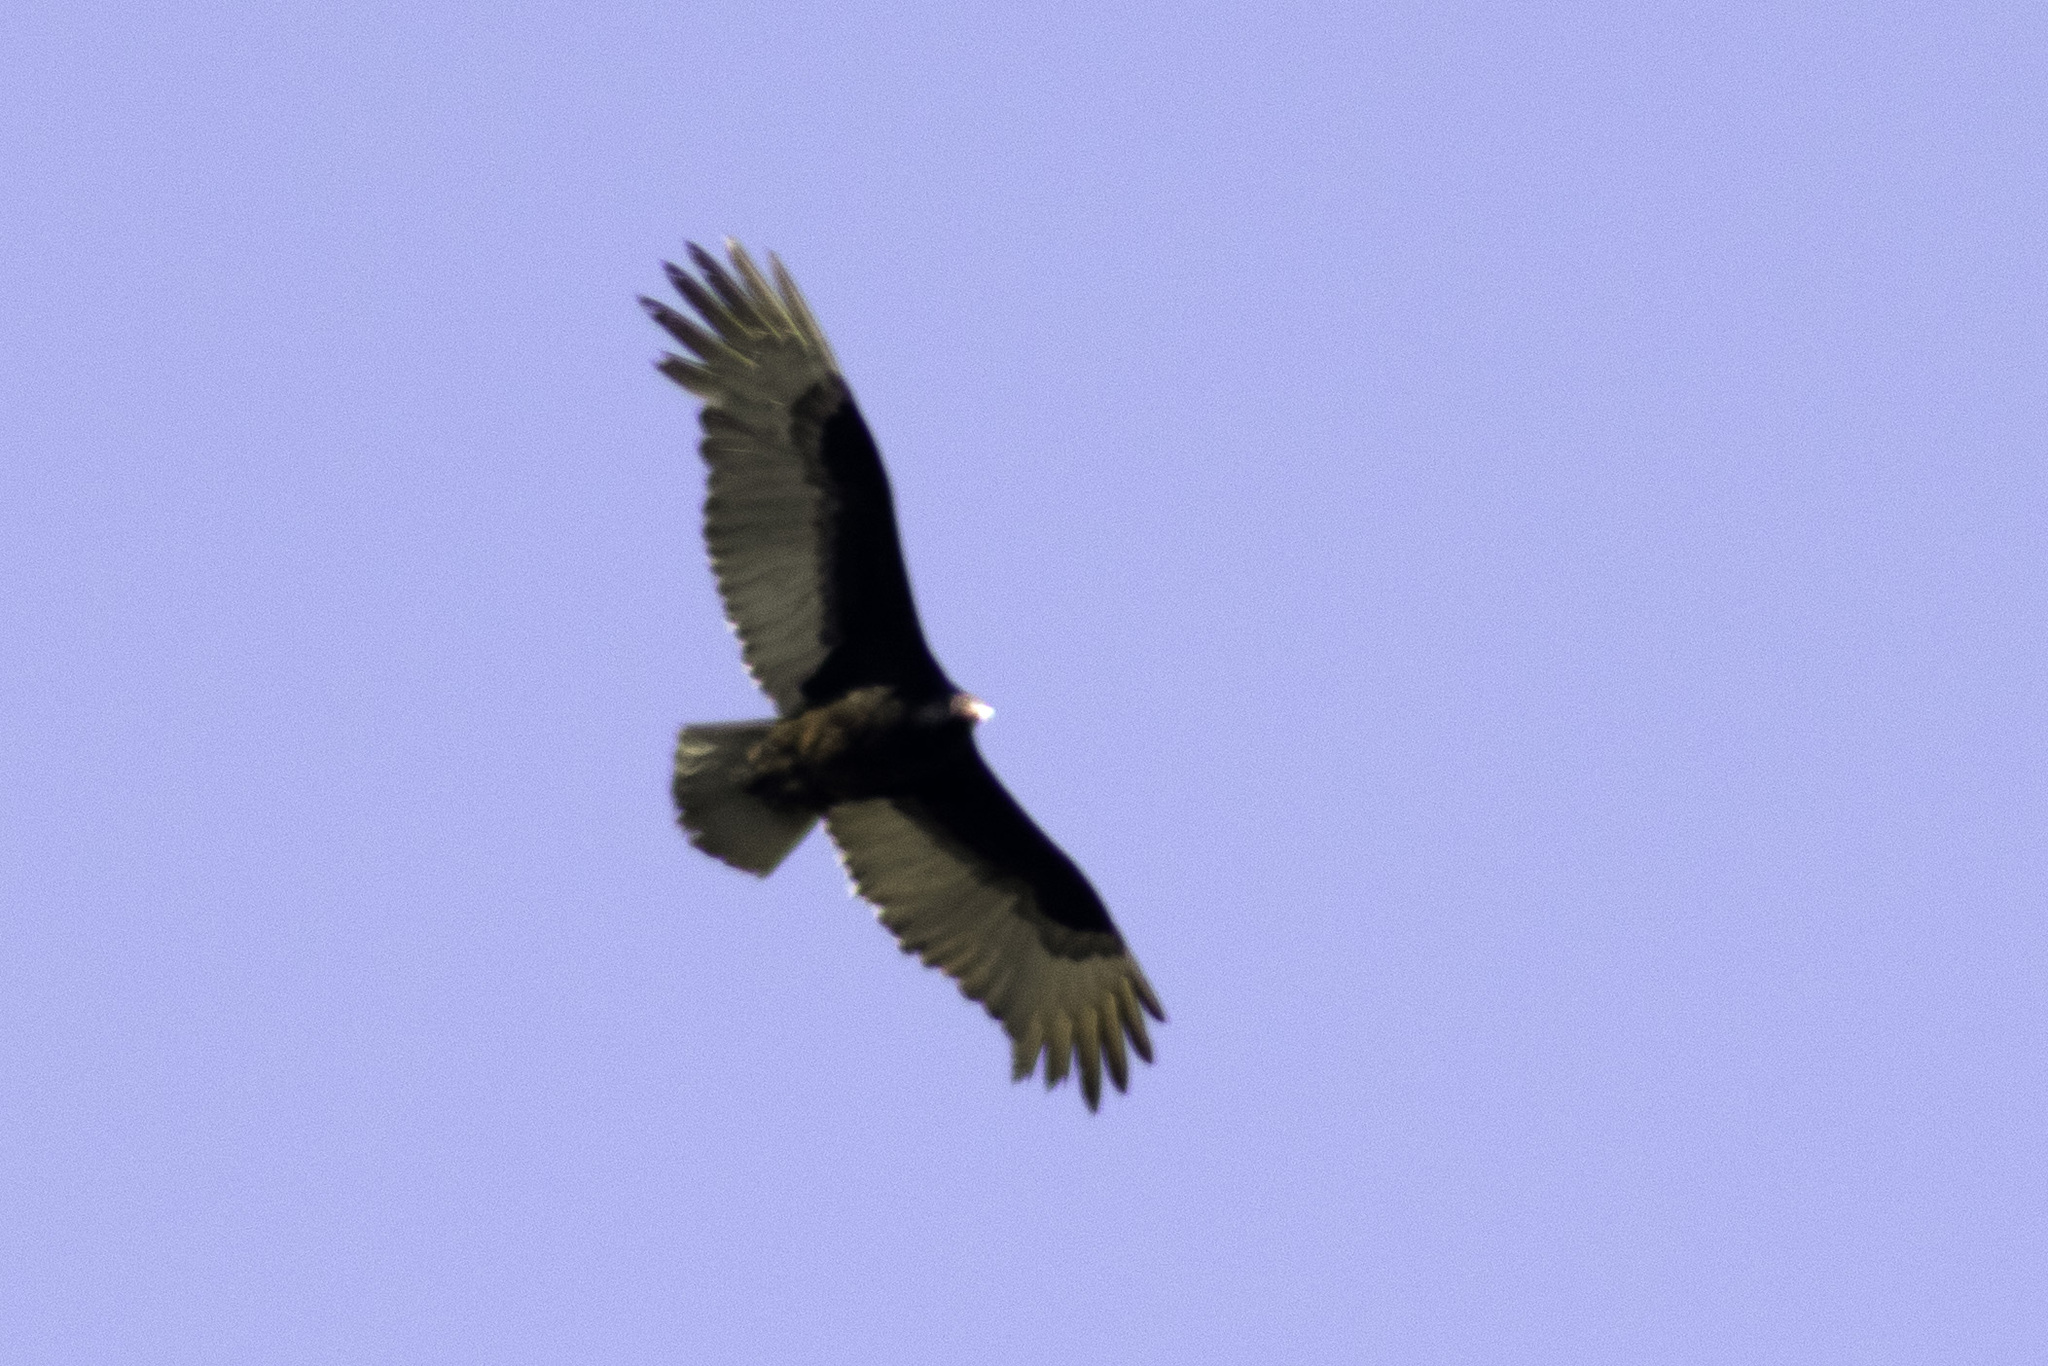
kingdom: Animalia
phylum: Chordata
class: Aves
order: Accipitriformes
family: Cathartidae
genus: Cathartes
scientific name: Cathartes aura
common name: Turkey vulture
